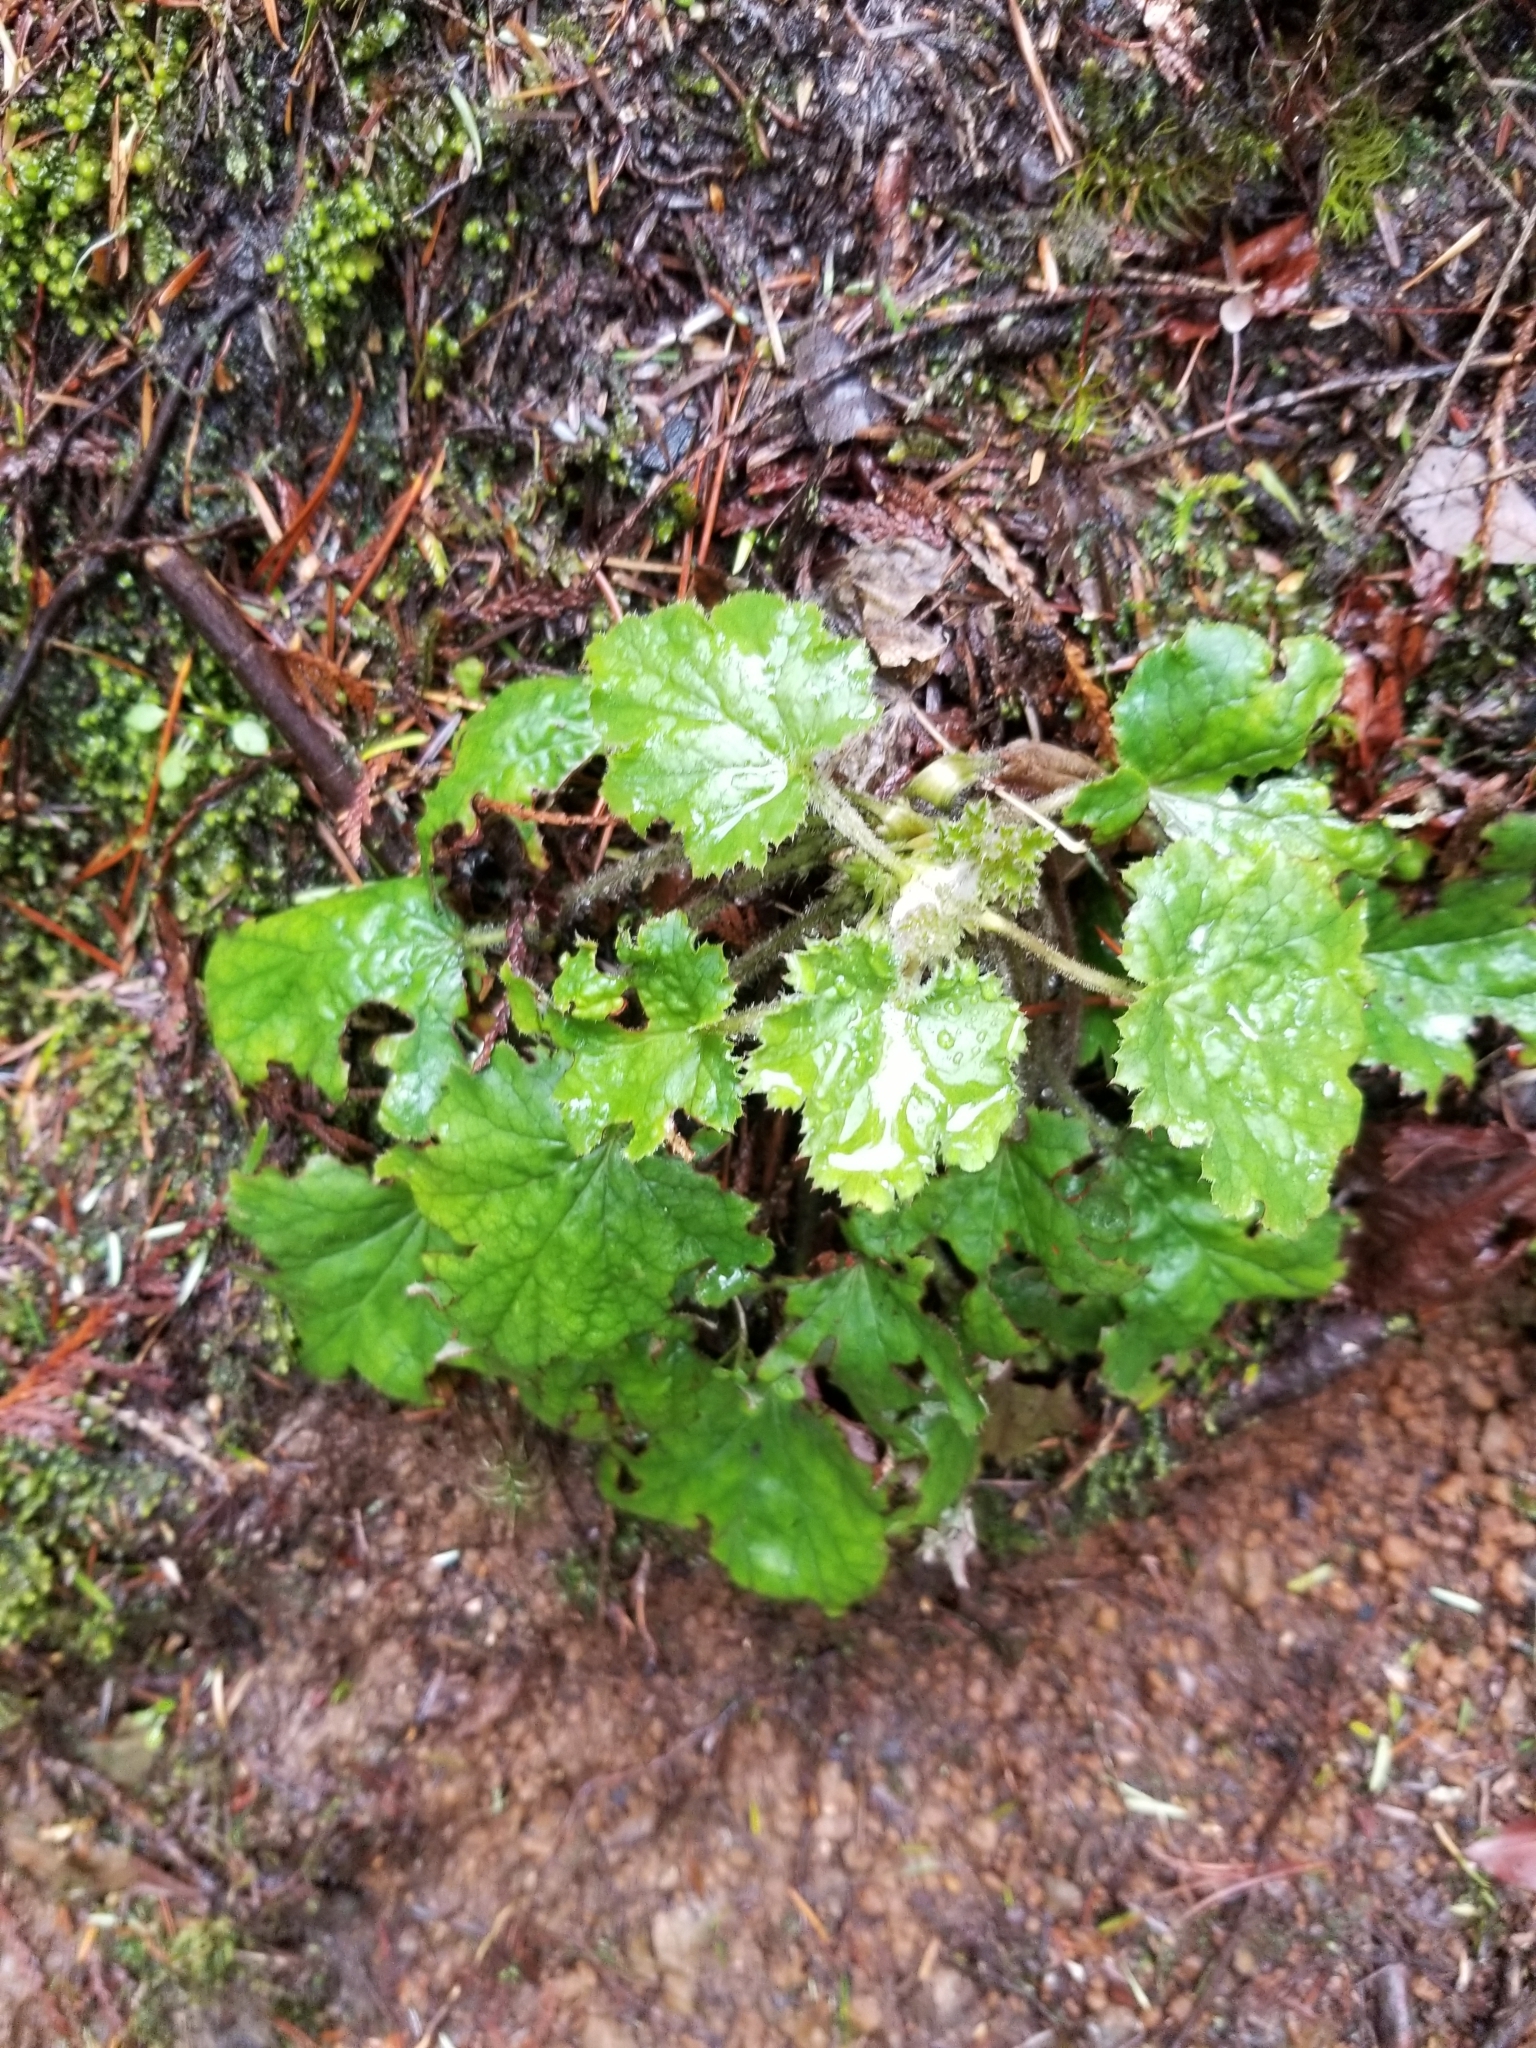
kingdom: Plantae
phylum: Tracheophyta
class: Magnoliopsida
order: Saxifragales
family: Saxifragaceae
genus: Heuchera
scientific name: Heuchera micrantha
